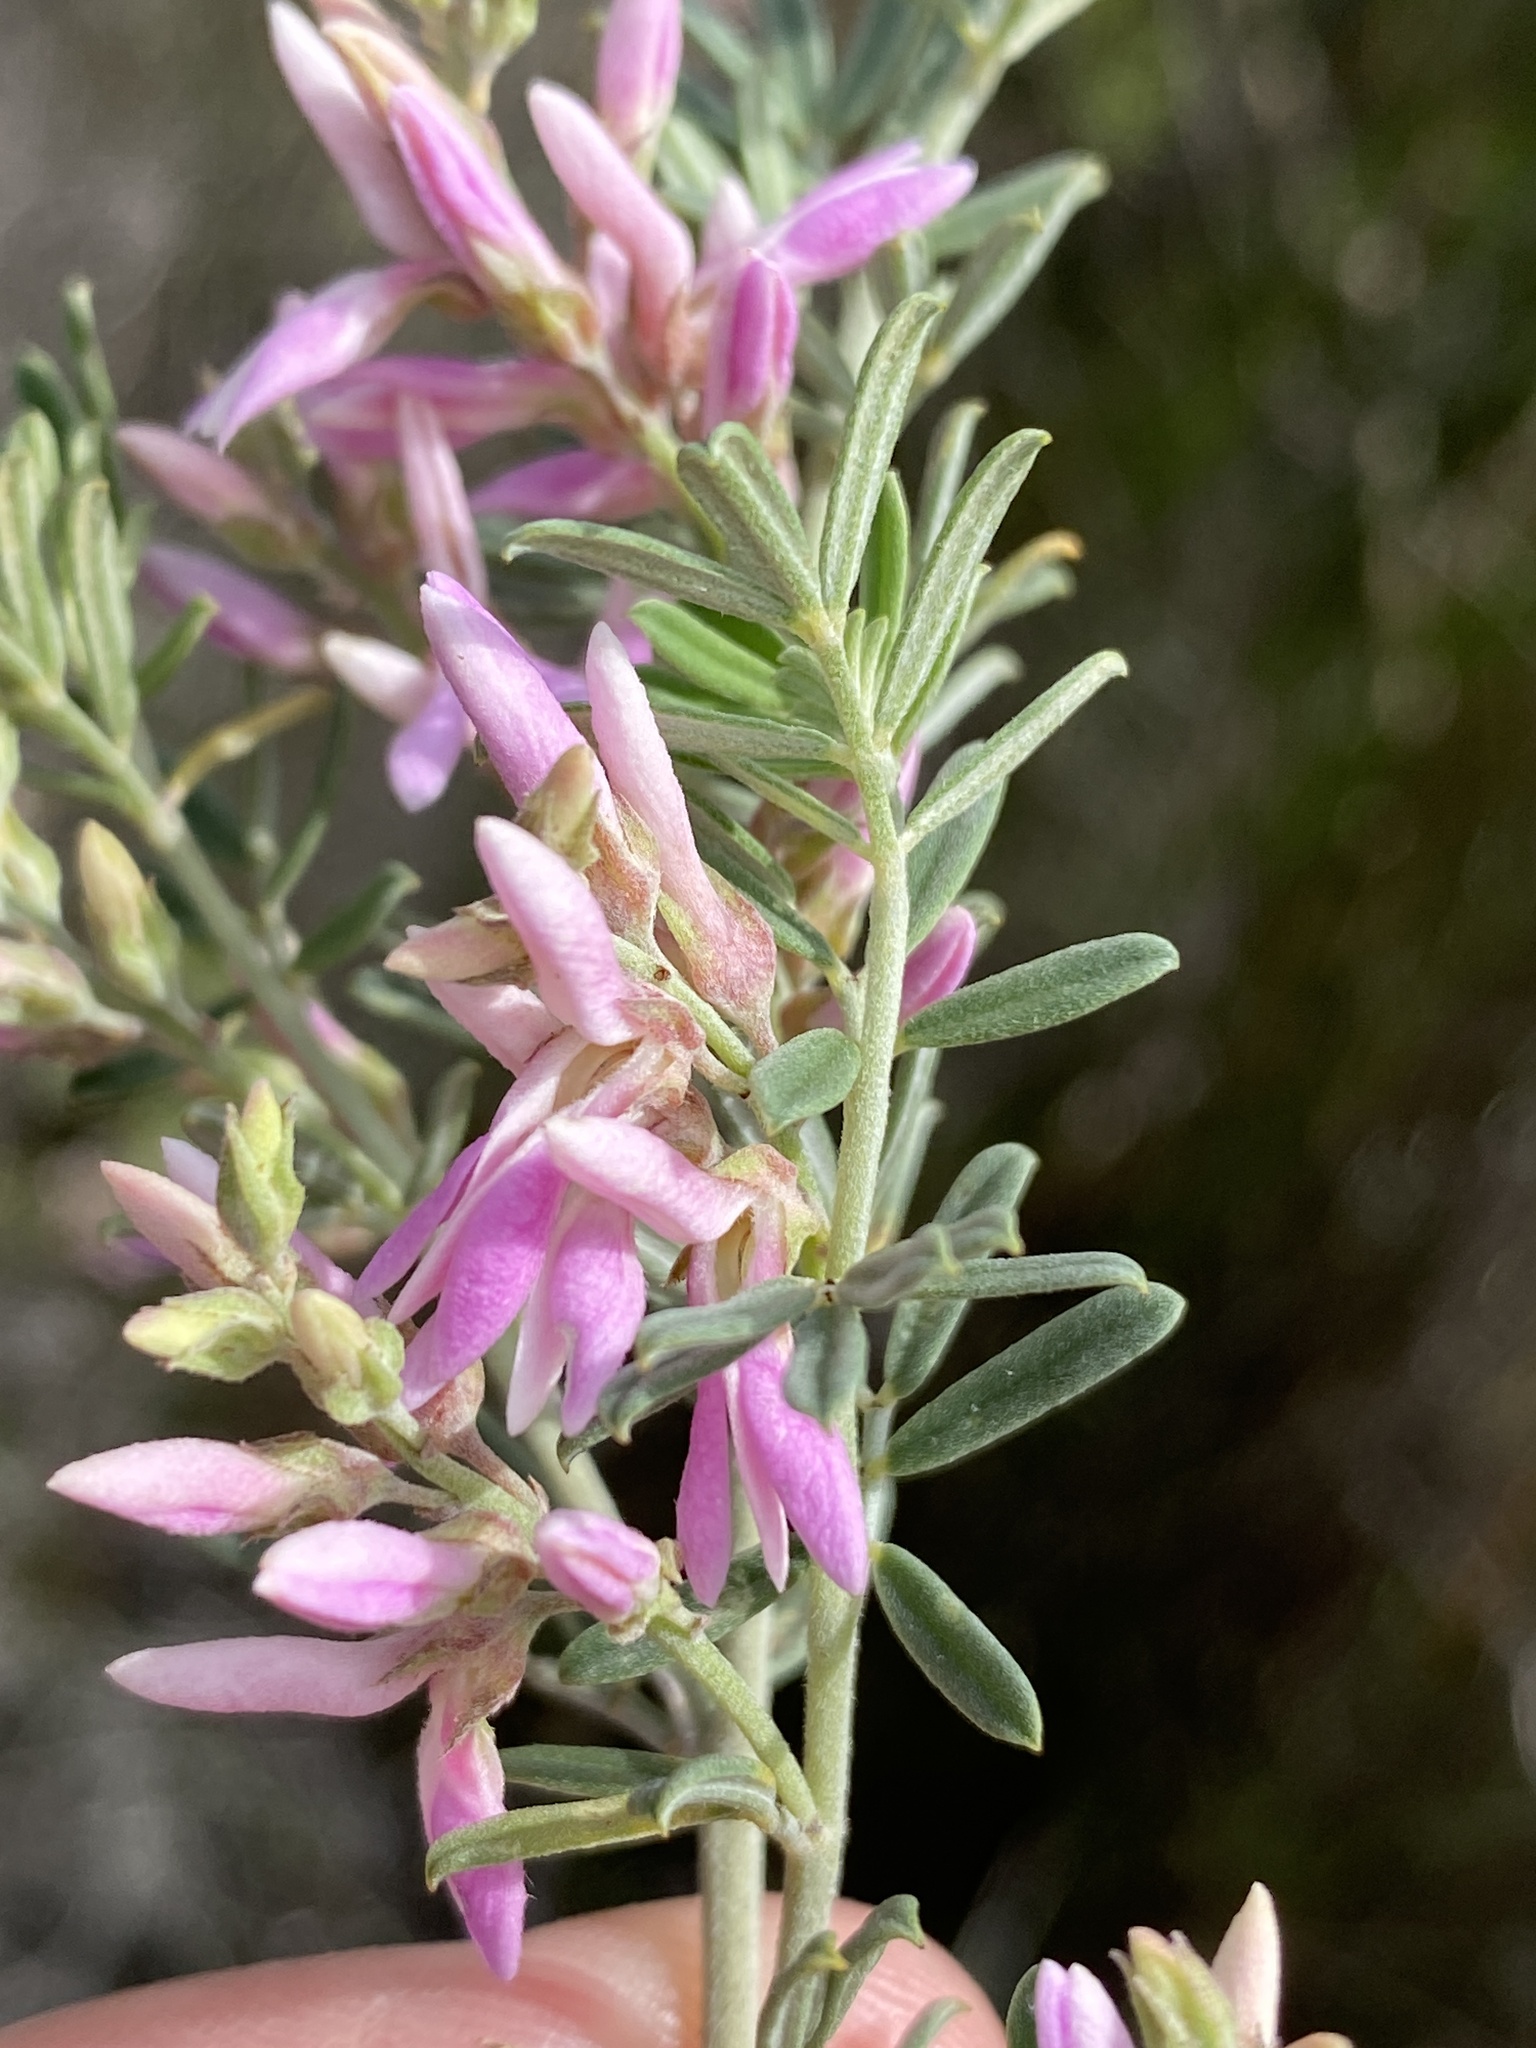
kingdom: Plantae
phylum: Tracheophyta
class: Magnoliopsida
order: Fabales
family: Fabaceae
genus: Indigofera
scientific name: Indigofera brachystachya
